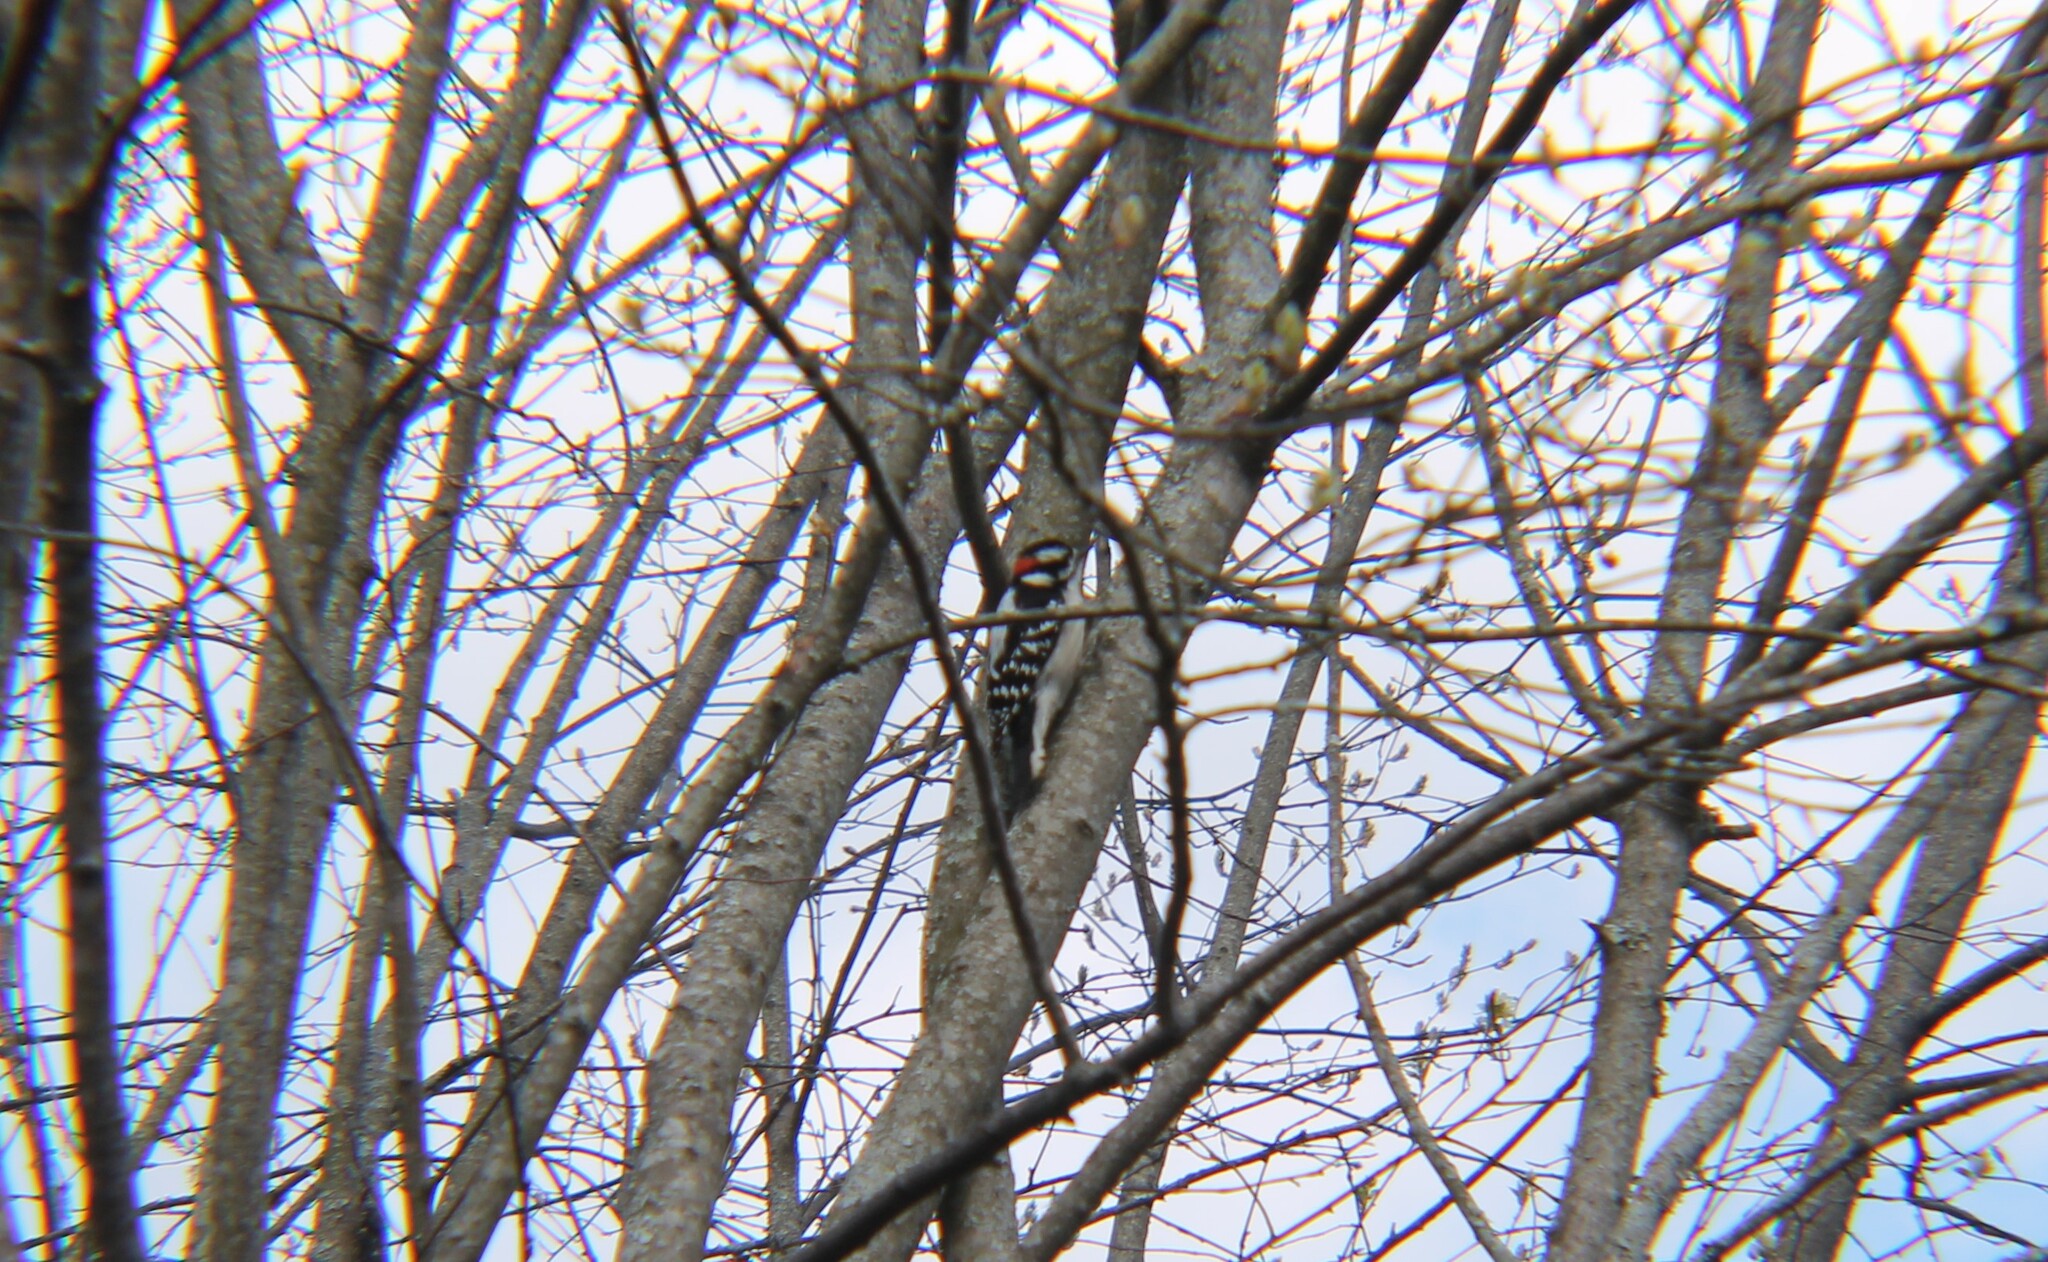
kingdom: Animalia
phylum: Chordata
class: Aves
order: Piciformes
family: Picidae
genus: Dryobates
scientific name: Dryobates pubescens
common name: Downy woodpecker
